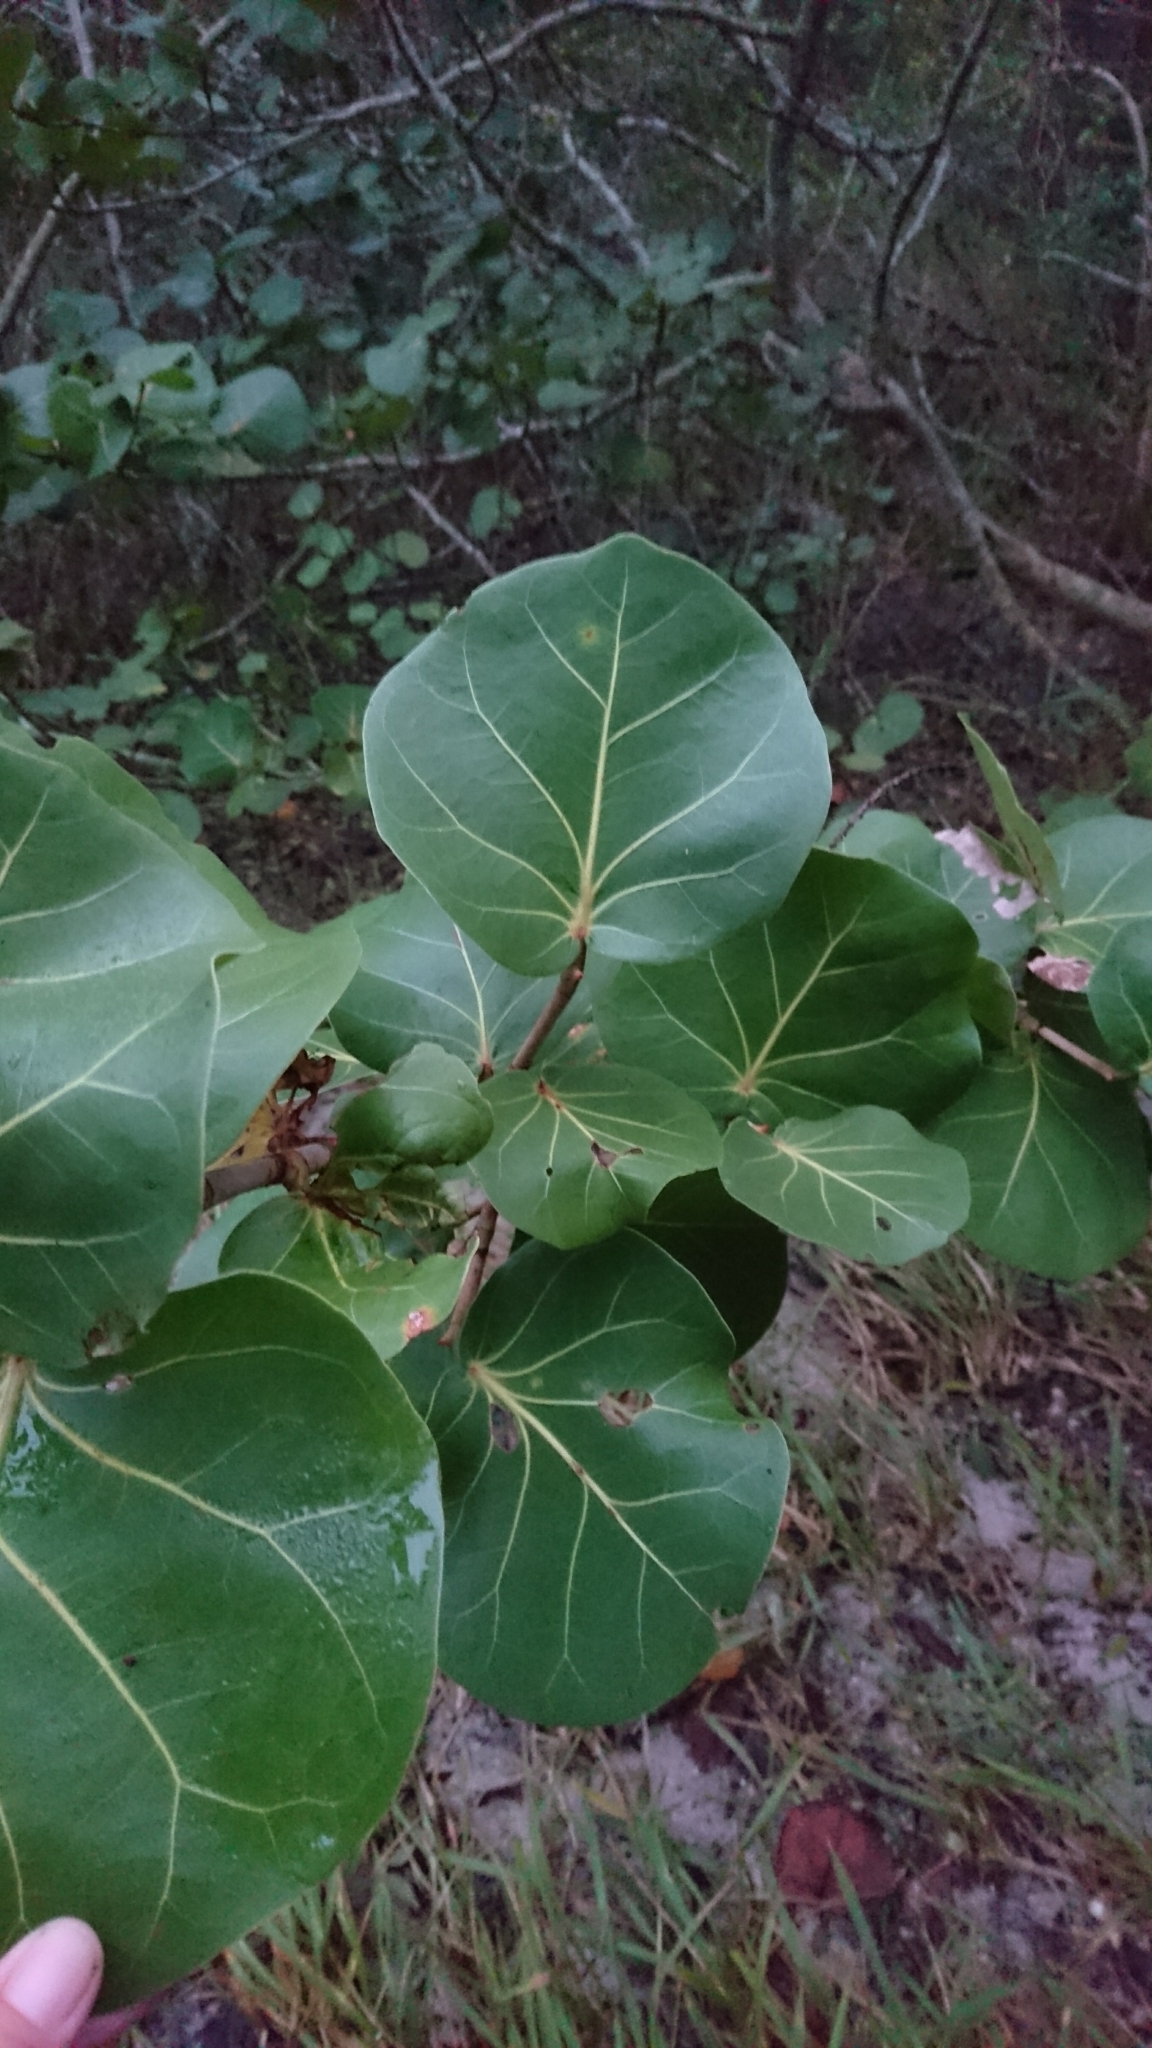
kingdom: Plantae
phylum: Tracheophyta
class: Magnoliopsida
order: Caryophyllales
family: Polygonaceae
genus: Coccoloba
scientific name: Coccoloba uvifera
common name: Seagrape
